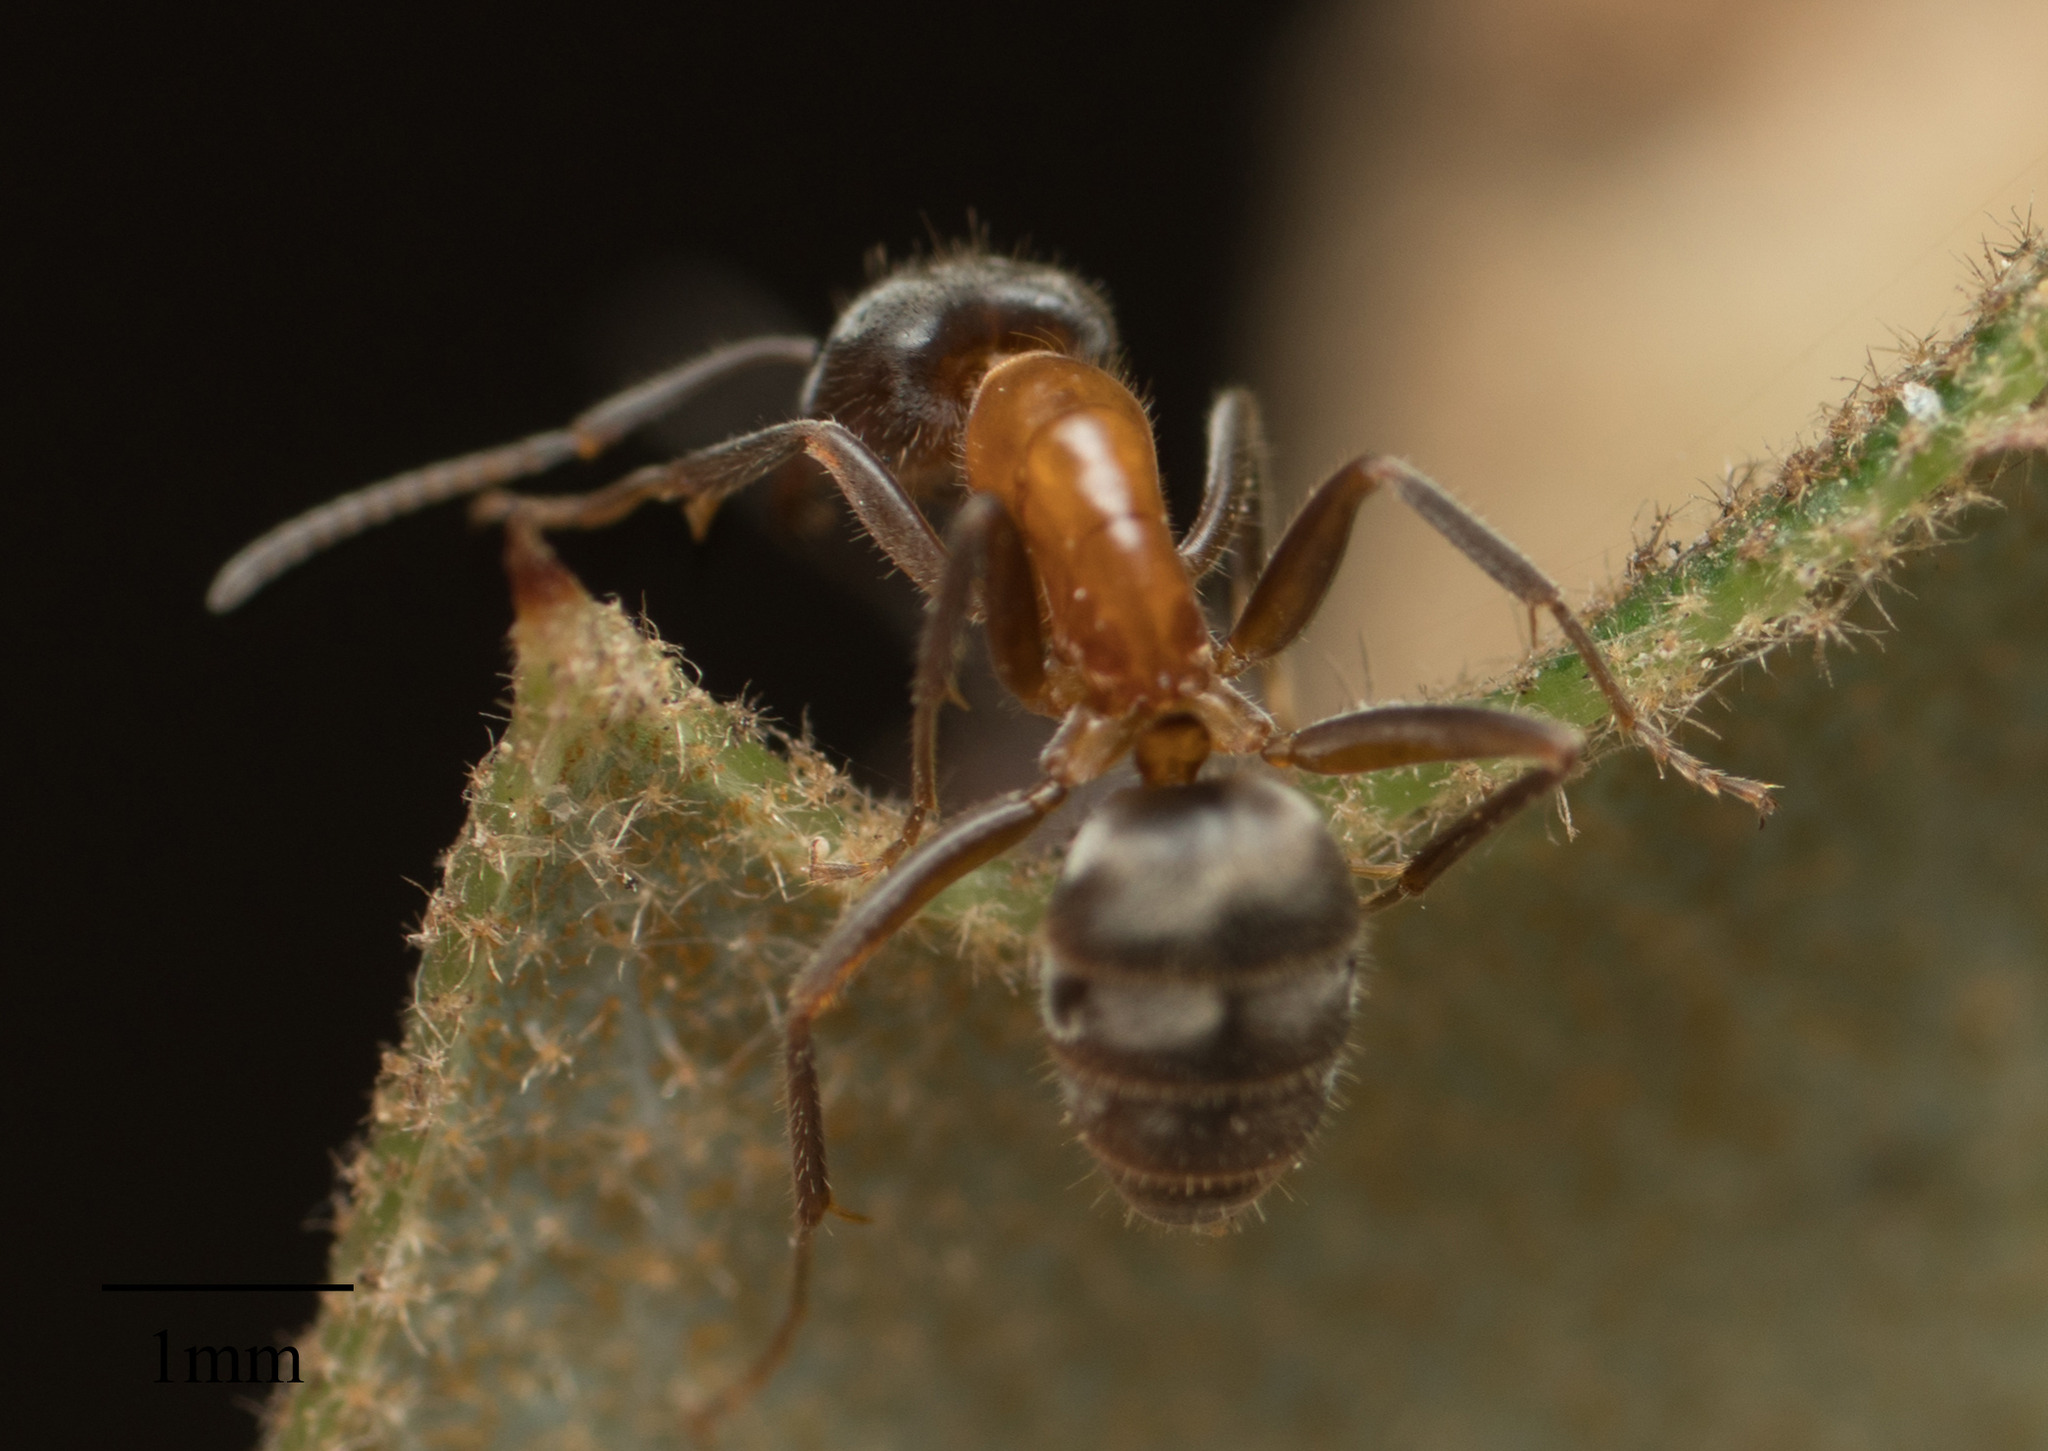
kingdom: Animalia
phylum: Arthropoda
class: Insecta
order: Hymenoptera
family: Formicidae
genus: Liometopum
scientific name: Liometopum occidentale
